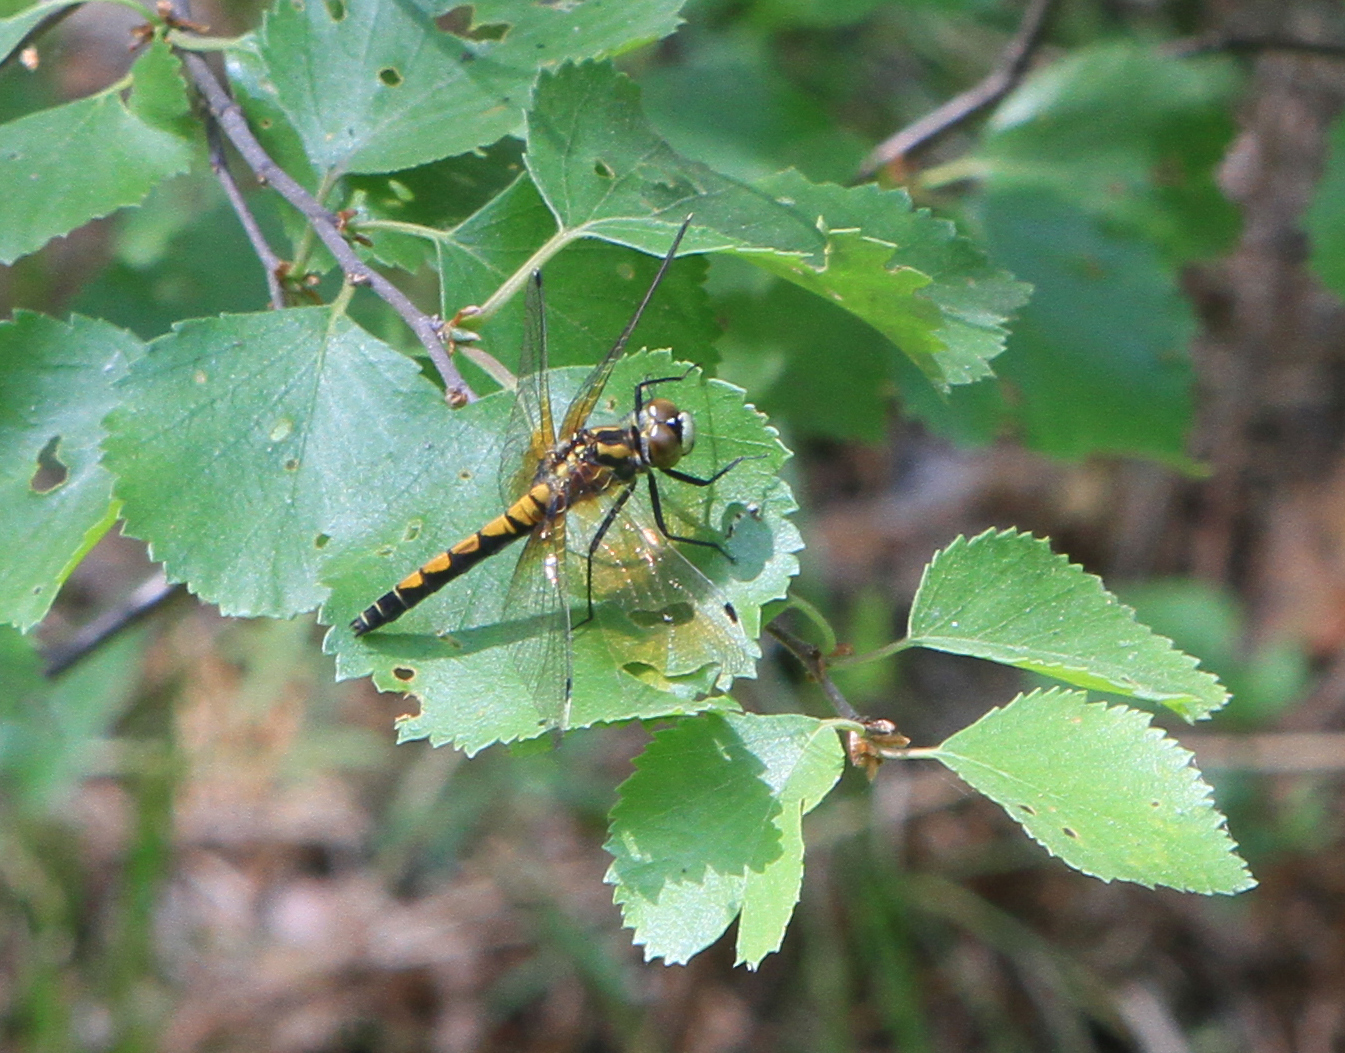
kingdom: Animalia
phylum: Arthropoda
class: Insecta
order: Odonata
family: Libellulidae
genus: Leucorrhinia
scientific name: Leucorrhinia pectoralis
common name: Yellow-spotted whiteface
